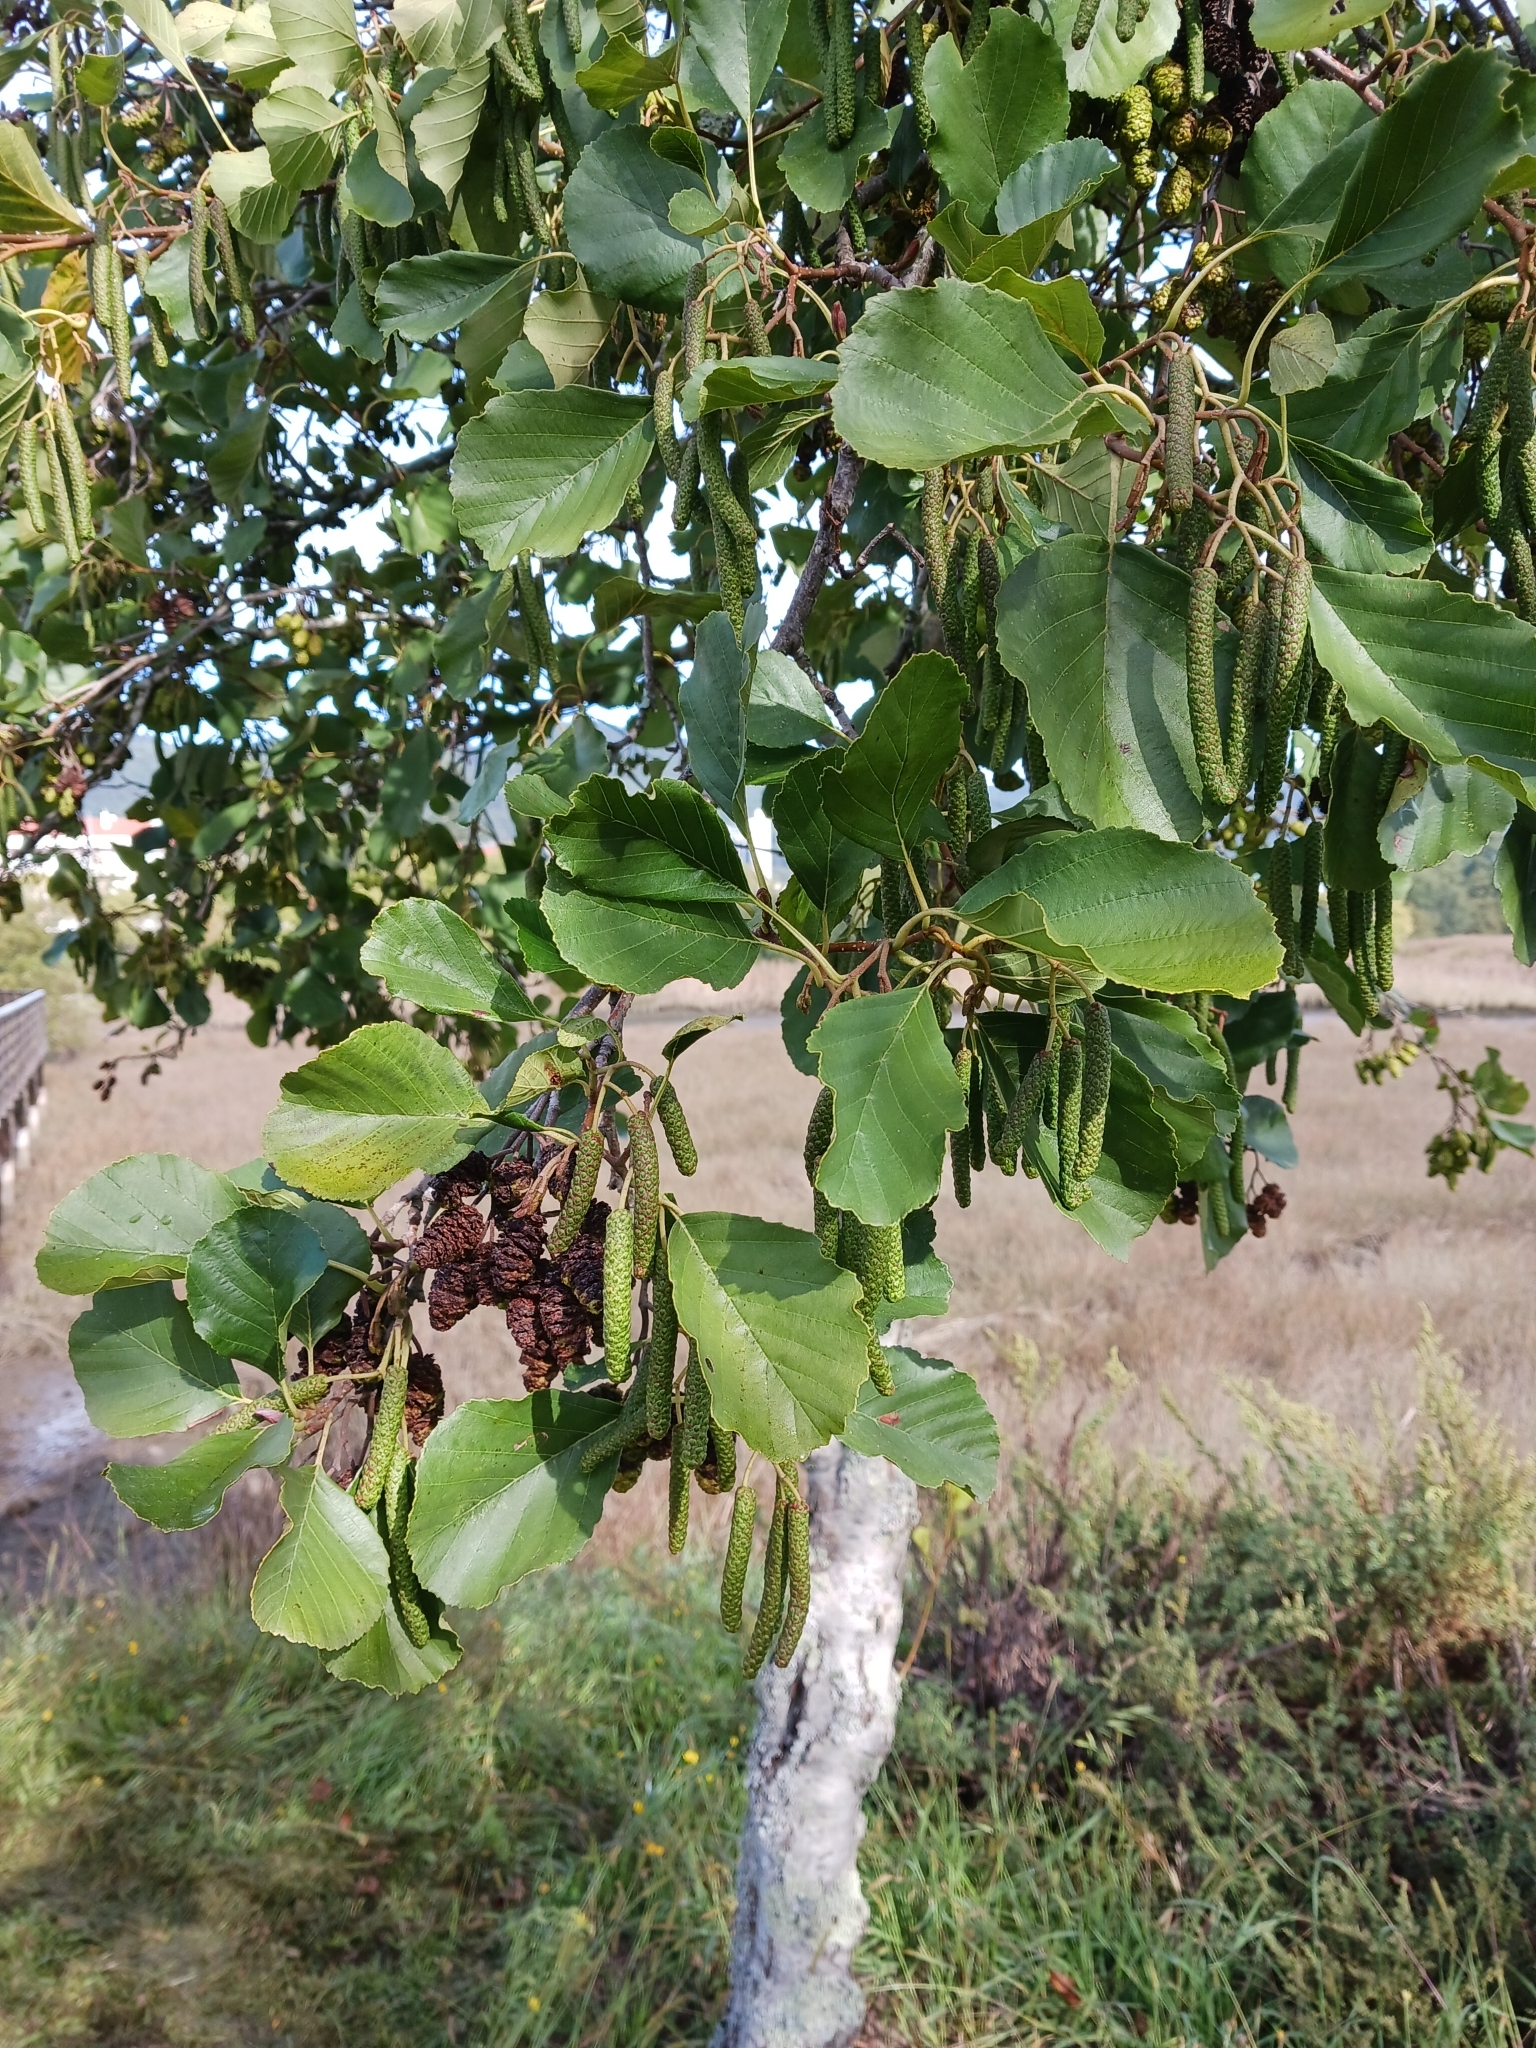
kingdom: Plantae
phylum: Tracheophyta
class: Magnoliopsida
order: Fagales
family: Betulaceae
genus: Alnus
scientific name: Alnus lusitanica
